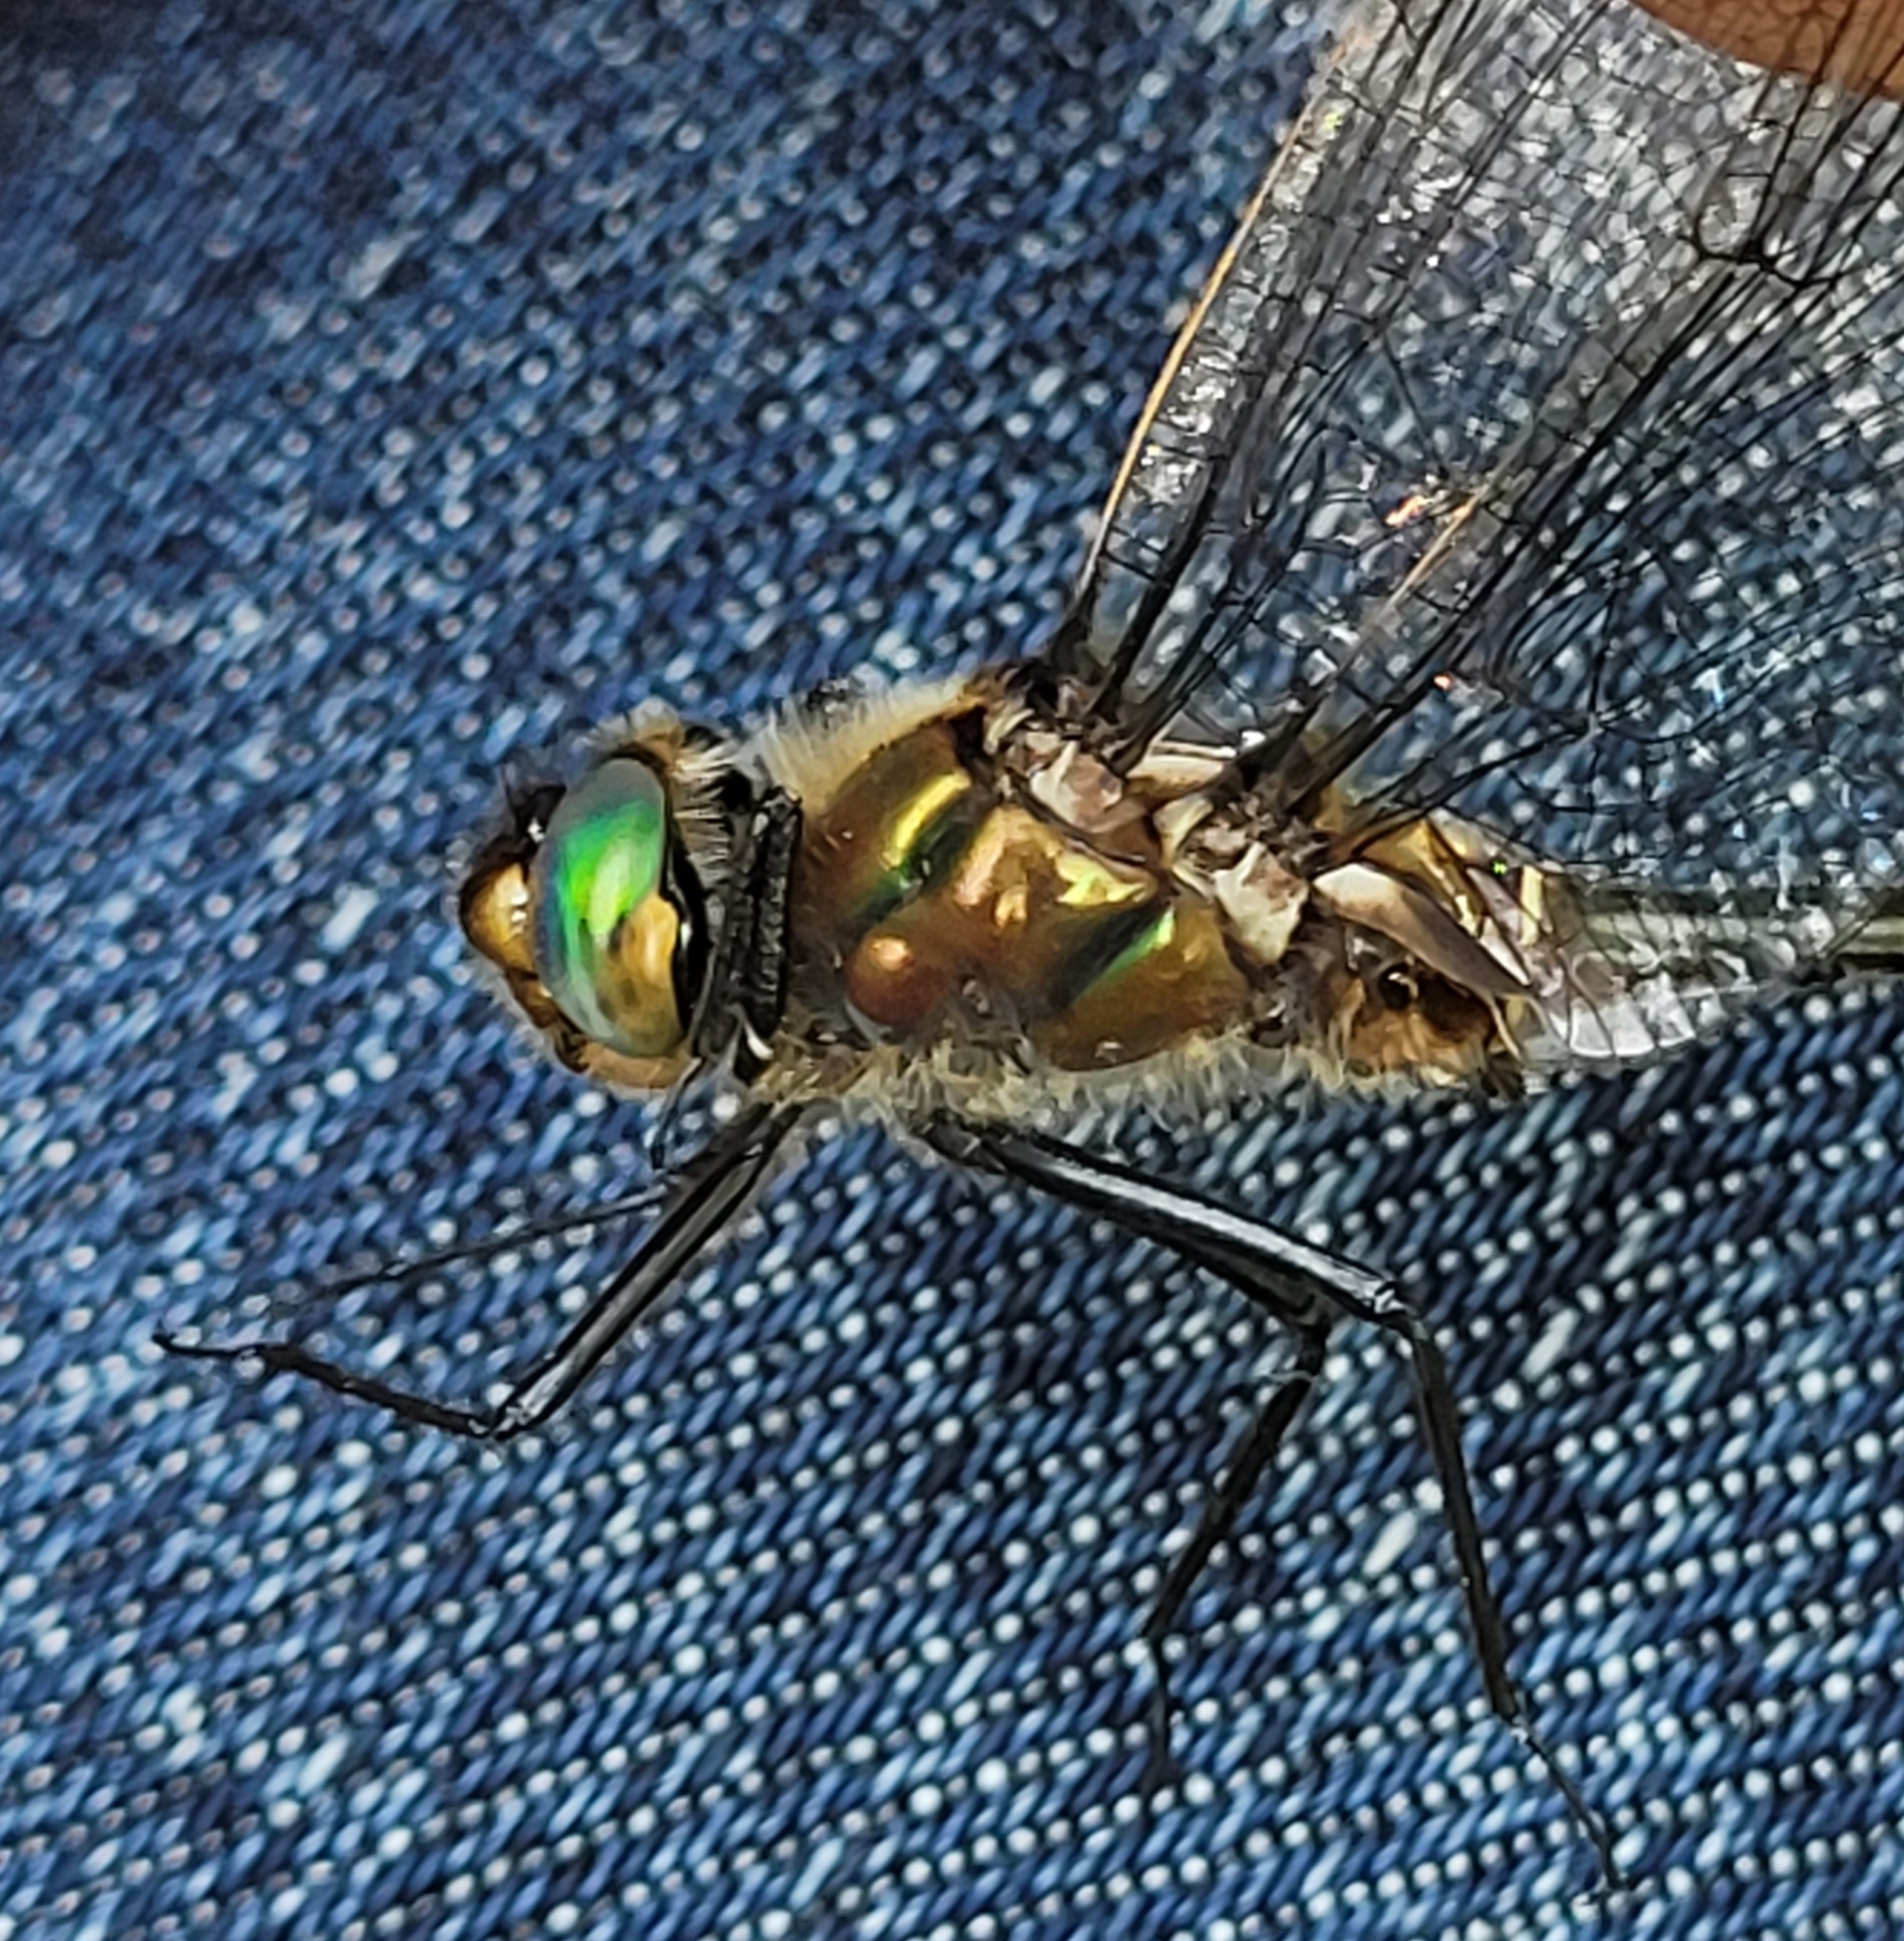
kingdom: Animalia
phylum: Arthropoda
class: Insecta
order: Odonata
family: Corduliidae
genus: Cordulia
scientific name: Cordulia shurtleffii
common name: American emerald
